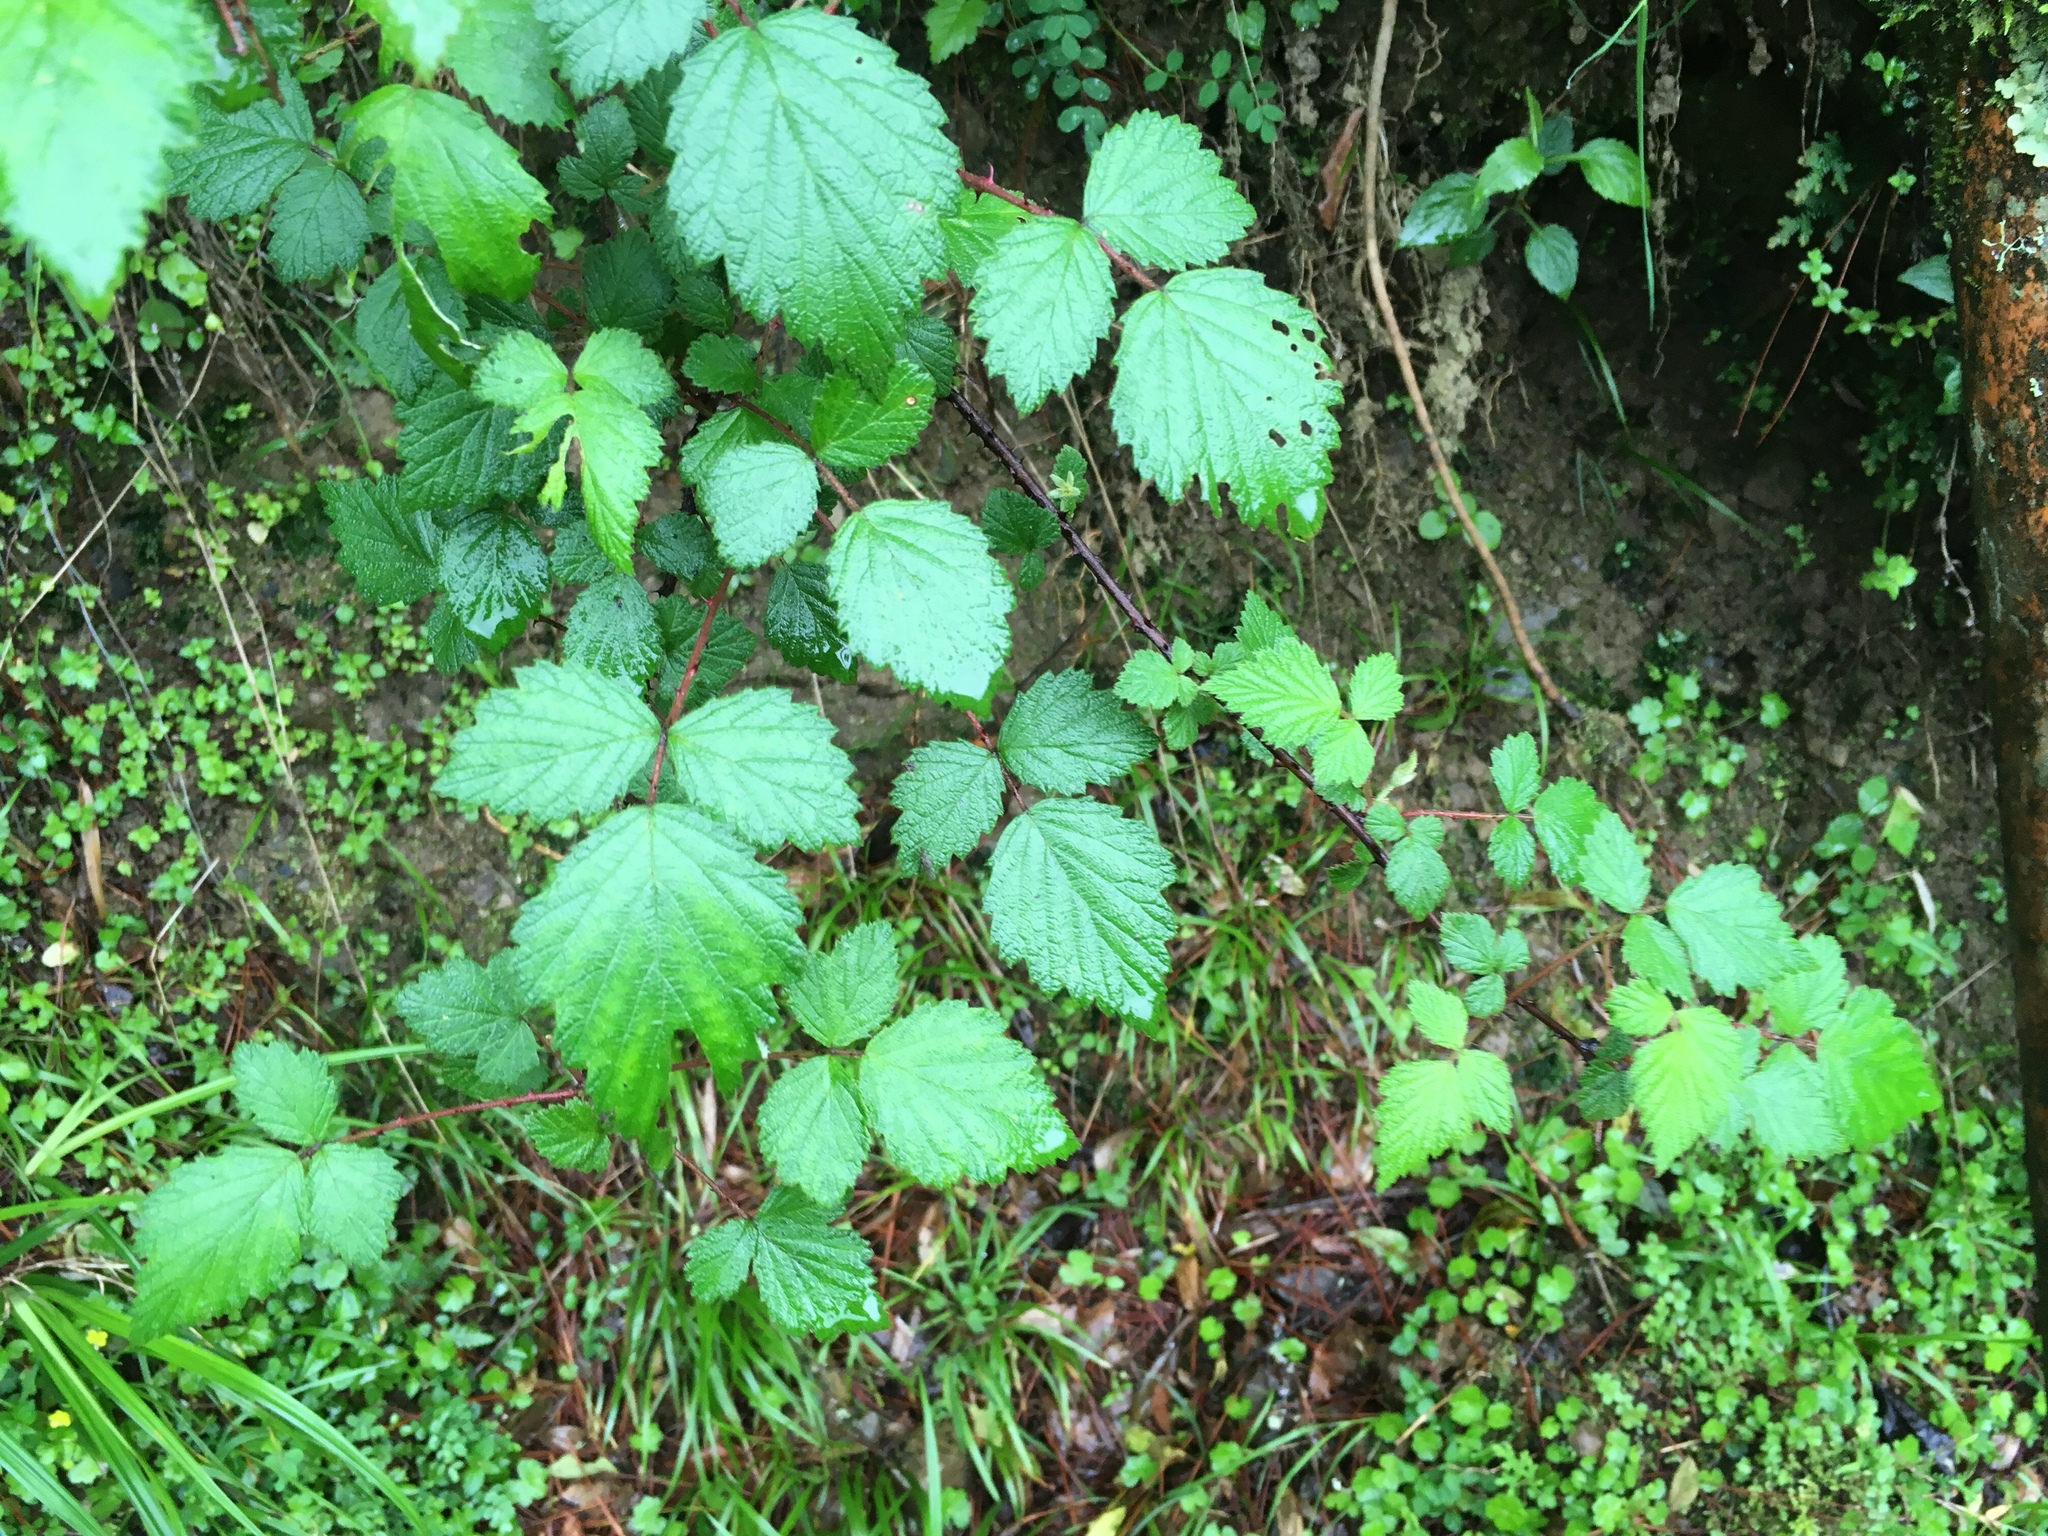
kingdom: Plantae
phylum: Tracheophyta
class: Magnoliopsida
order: Rosales
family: Rosaceae
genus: Rubus
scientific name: Rubus mesogaeus
